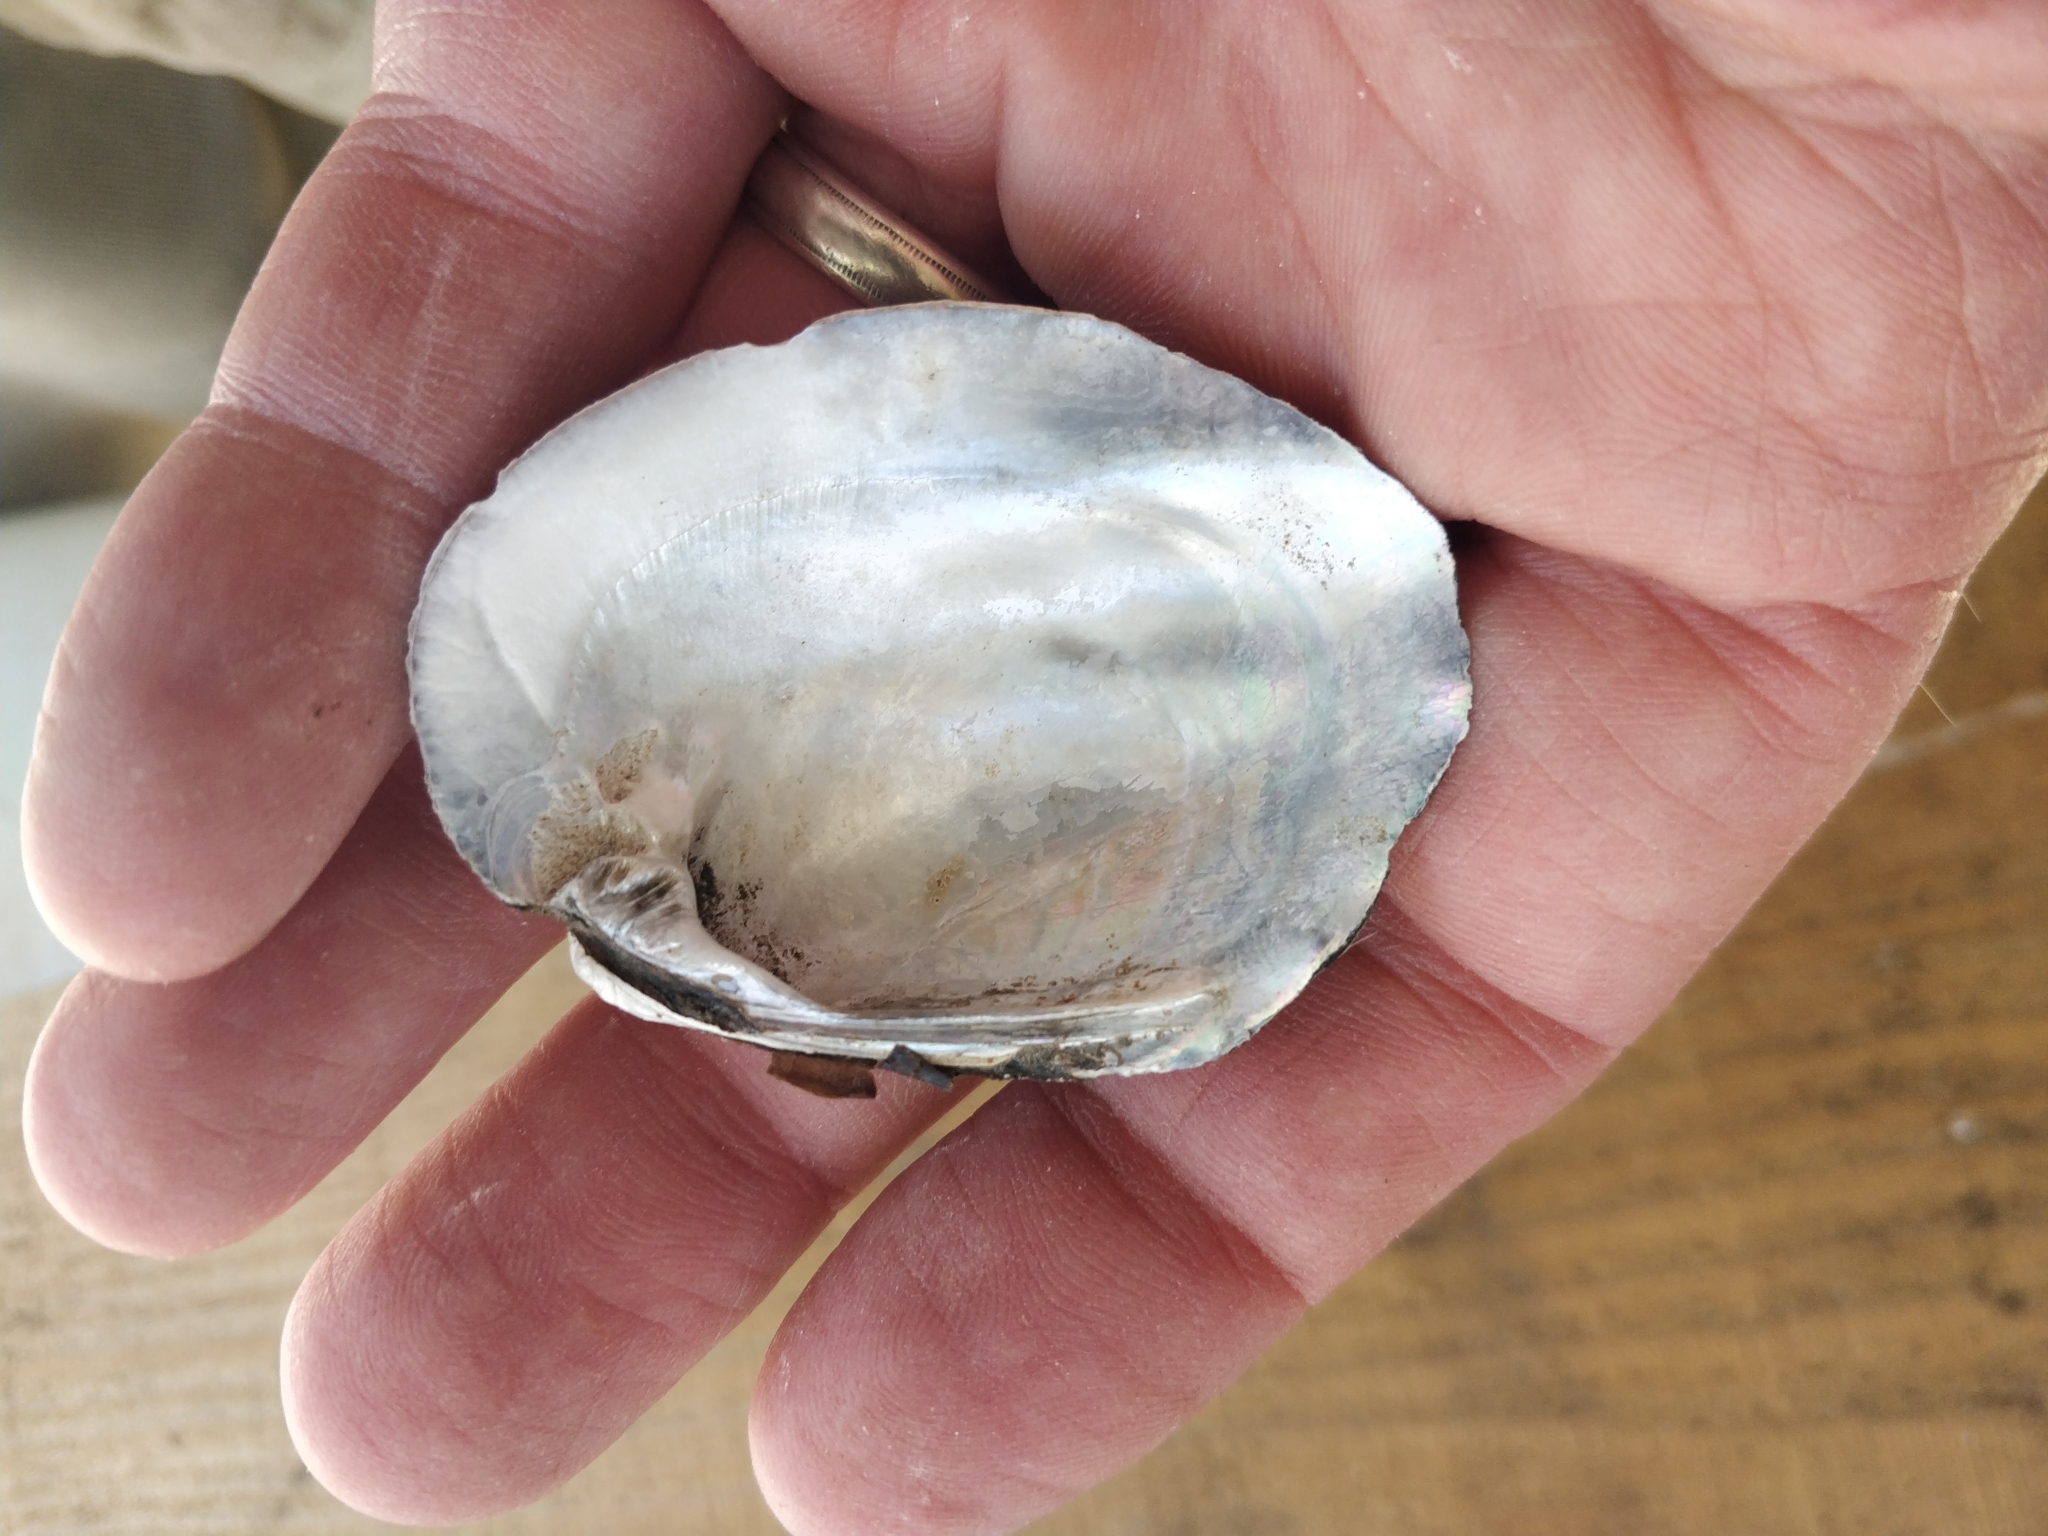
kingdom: Animalia
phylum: Mollusca
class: Bivalvia
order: Unionida
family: Unionidae
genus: Amblema
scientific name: Amblema plicata
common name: Threeridge
